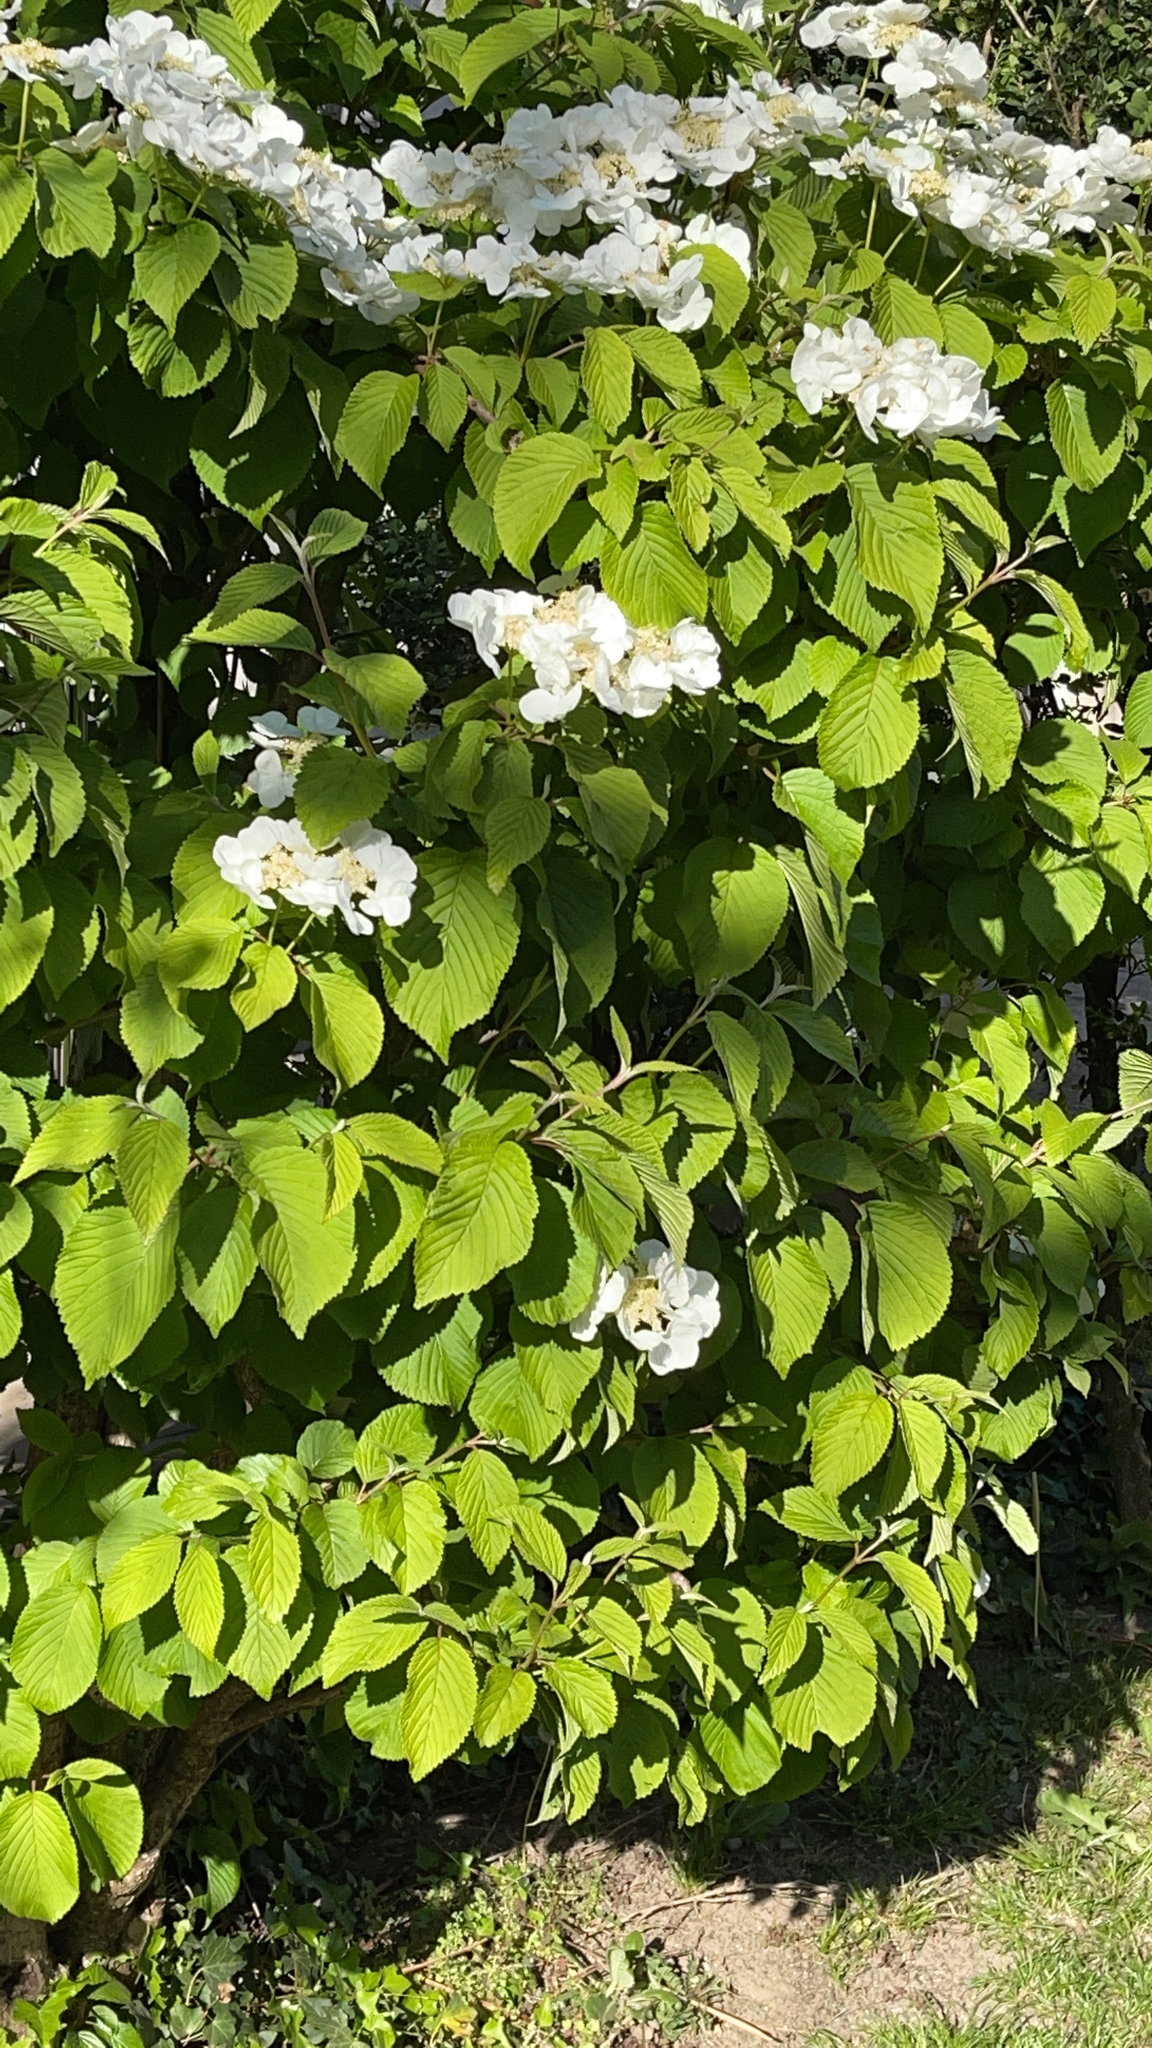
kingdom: Plantae
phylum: Tracheophyta
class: Magnoliopsida
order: Dipsacales
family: Viburnaceae
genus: Viburnum
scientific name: Viburnum plicatum
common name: Japanese snowball
